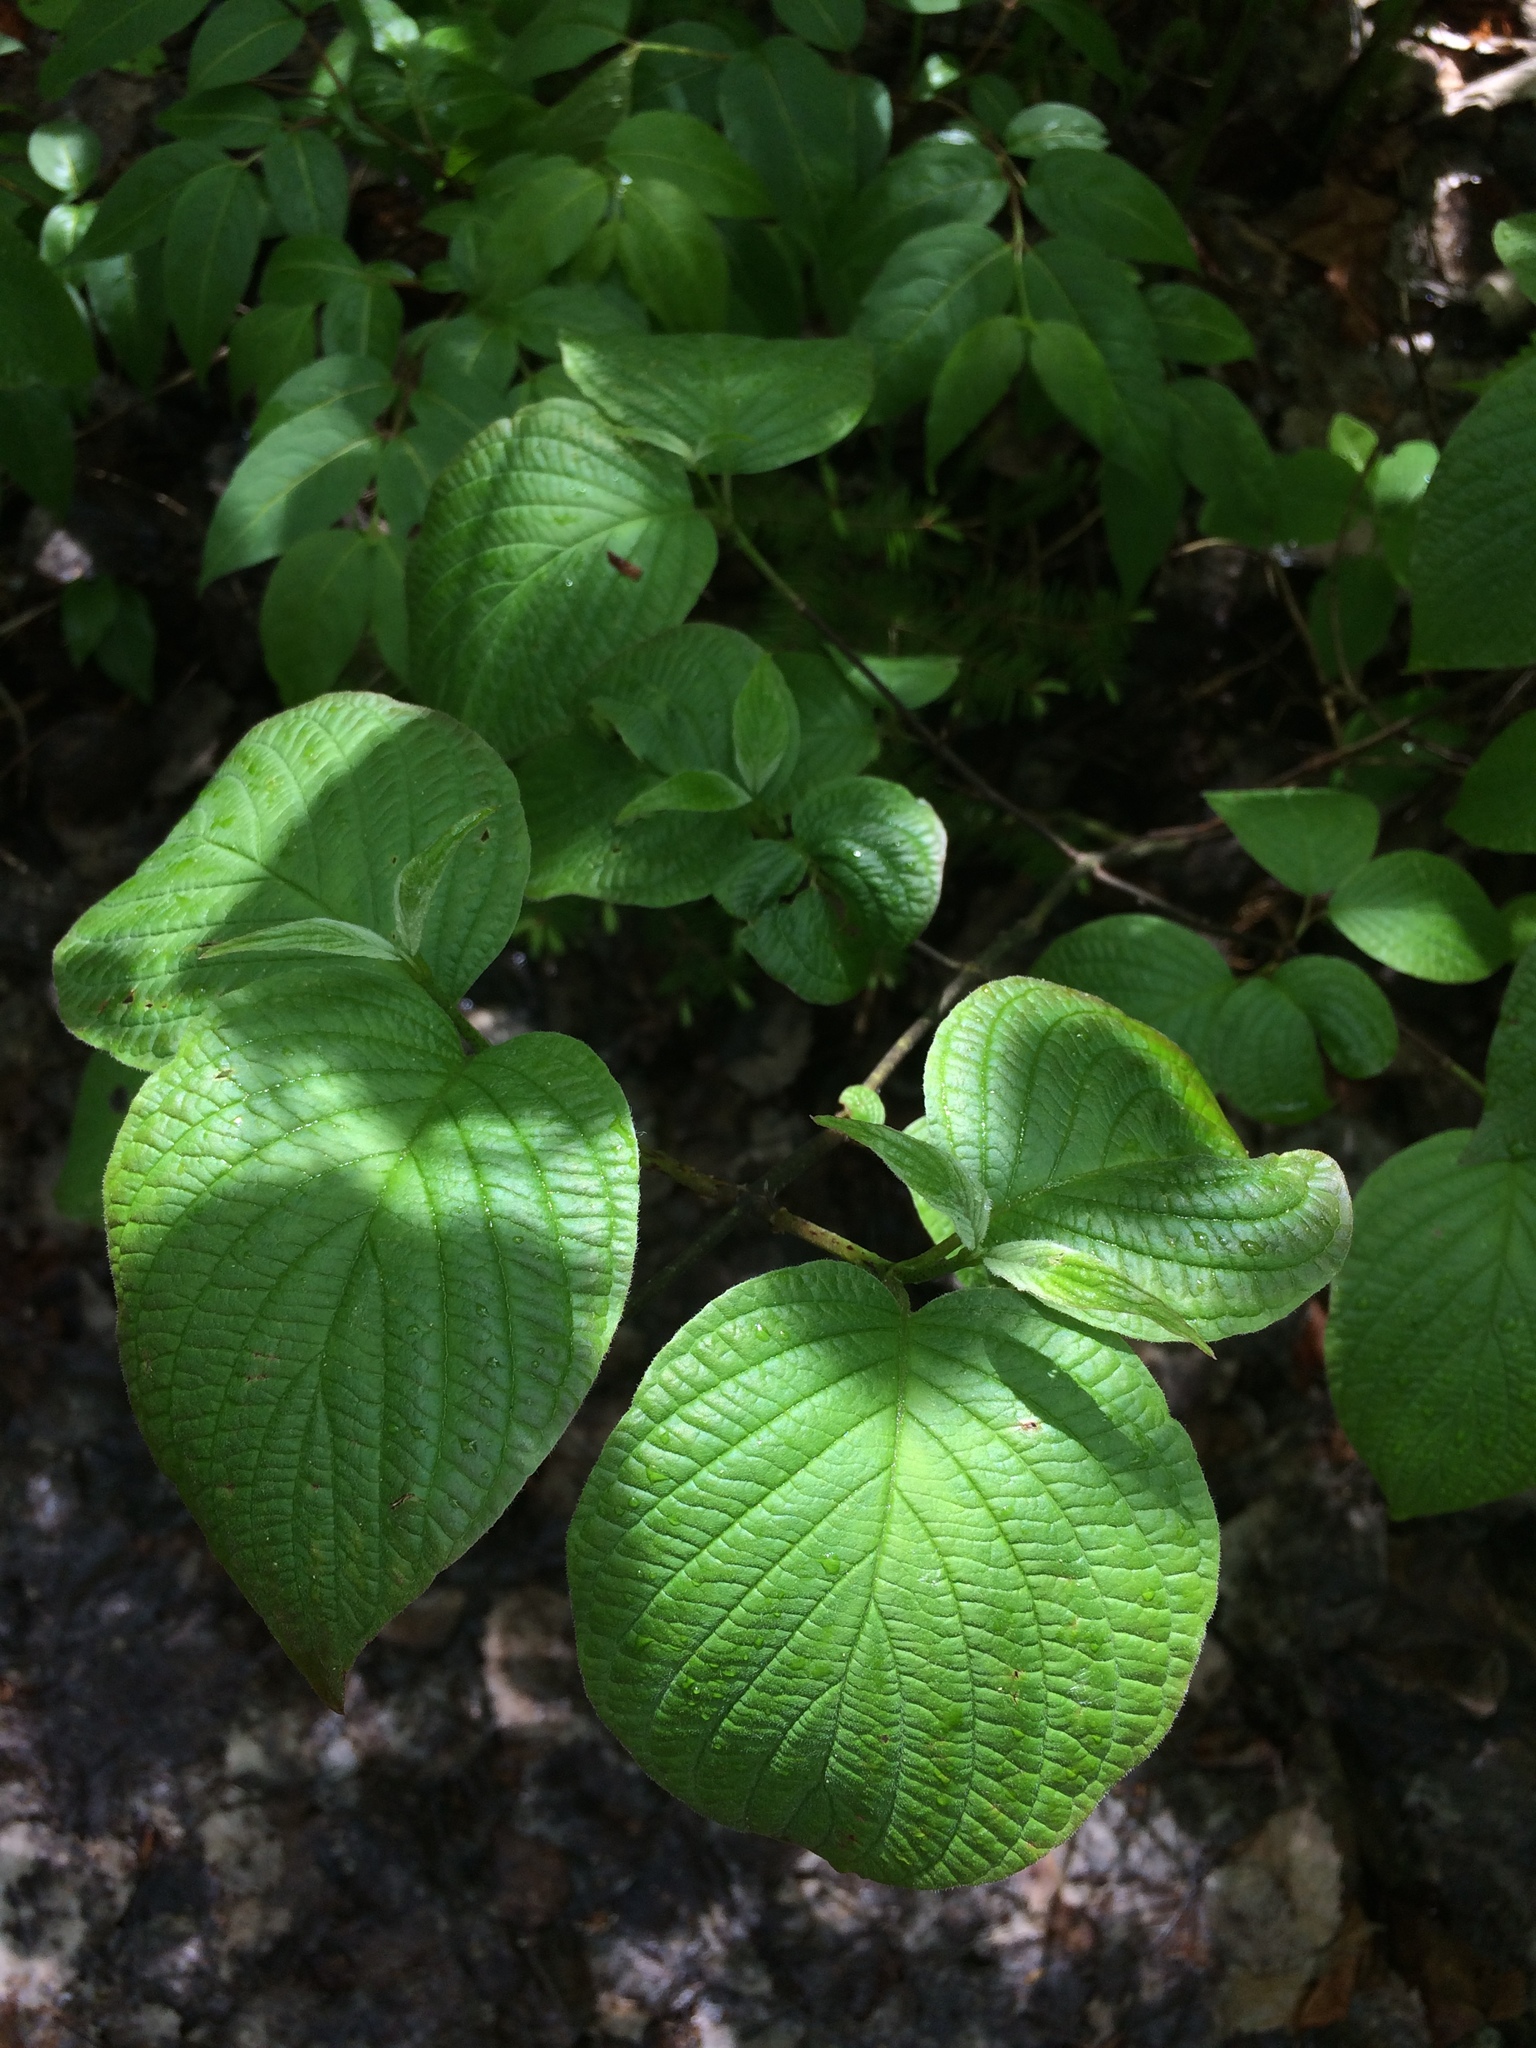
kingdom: Plantae
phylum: Tracheophyta
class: Magnoliopsida
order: Cornales
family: Cornaceae
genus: Cornus
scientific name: Cornus rugosa
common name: Round-leaf dogwood
